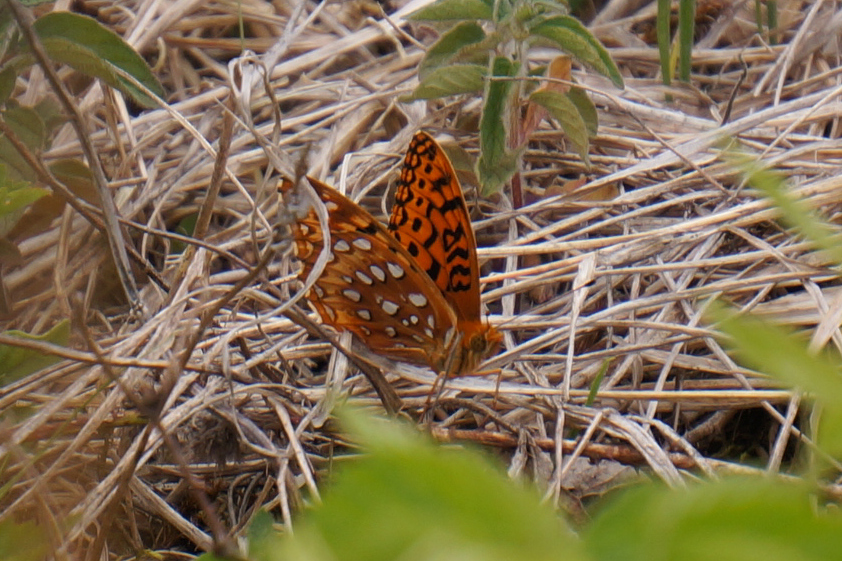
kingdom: Animalia
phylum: Arthropoda
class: Insecta
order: Lepidoptera
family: Nymphalidae
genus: Speyeria
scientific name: Speyeria cybele
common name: Great spangled fritillary
